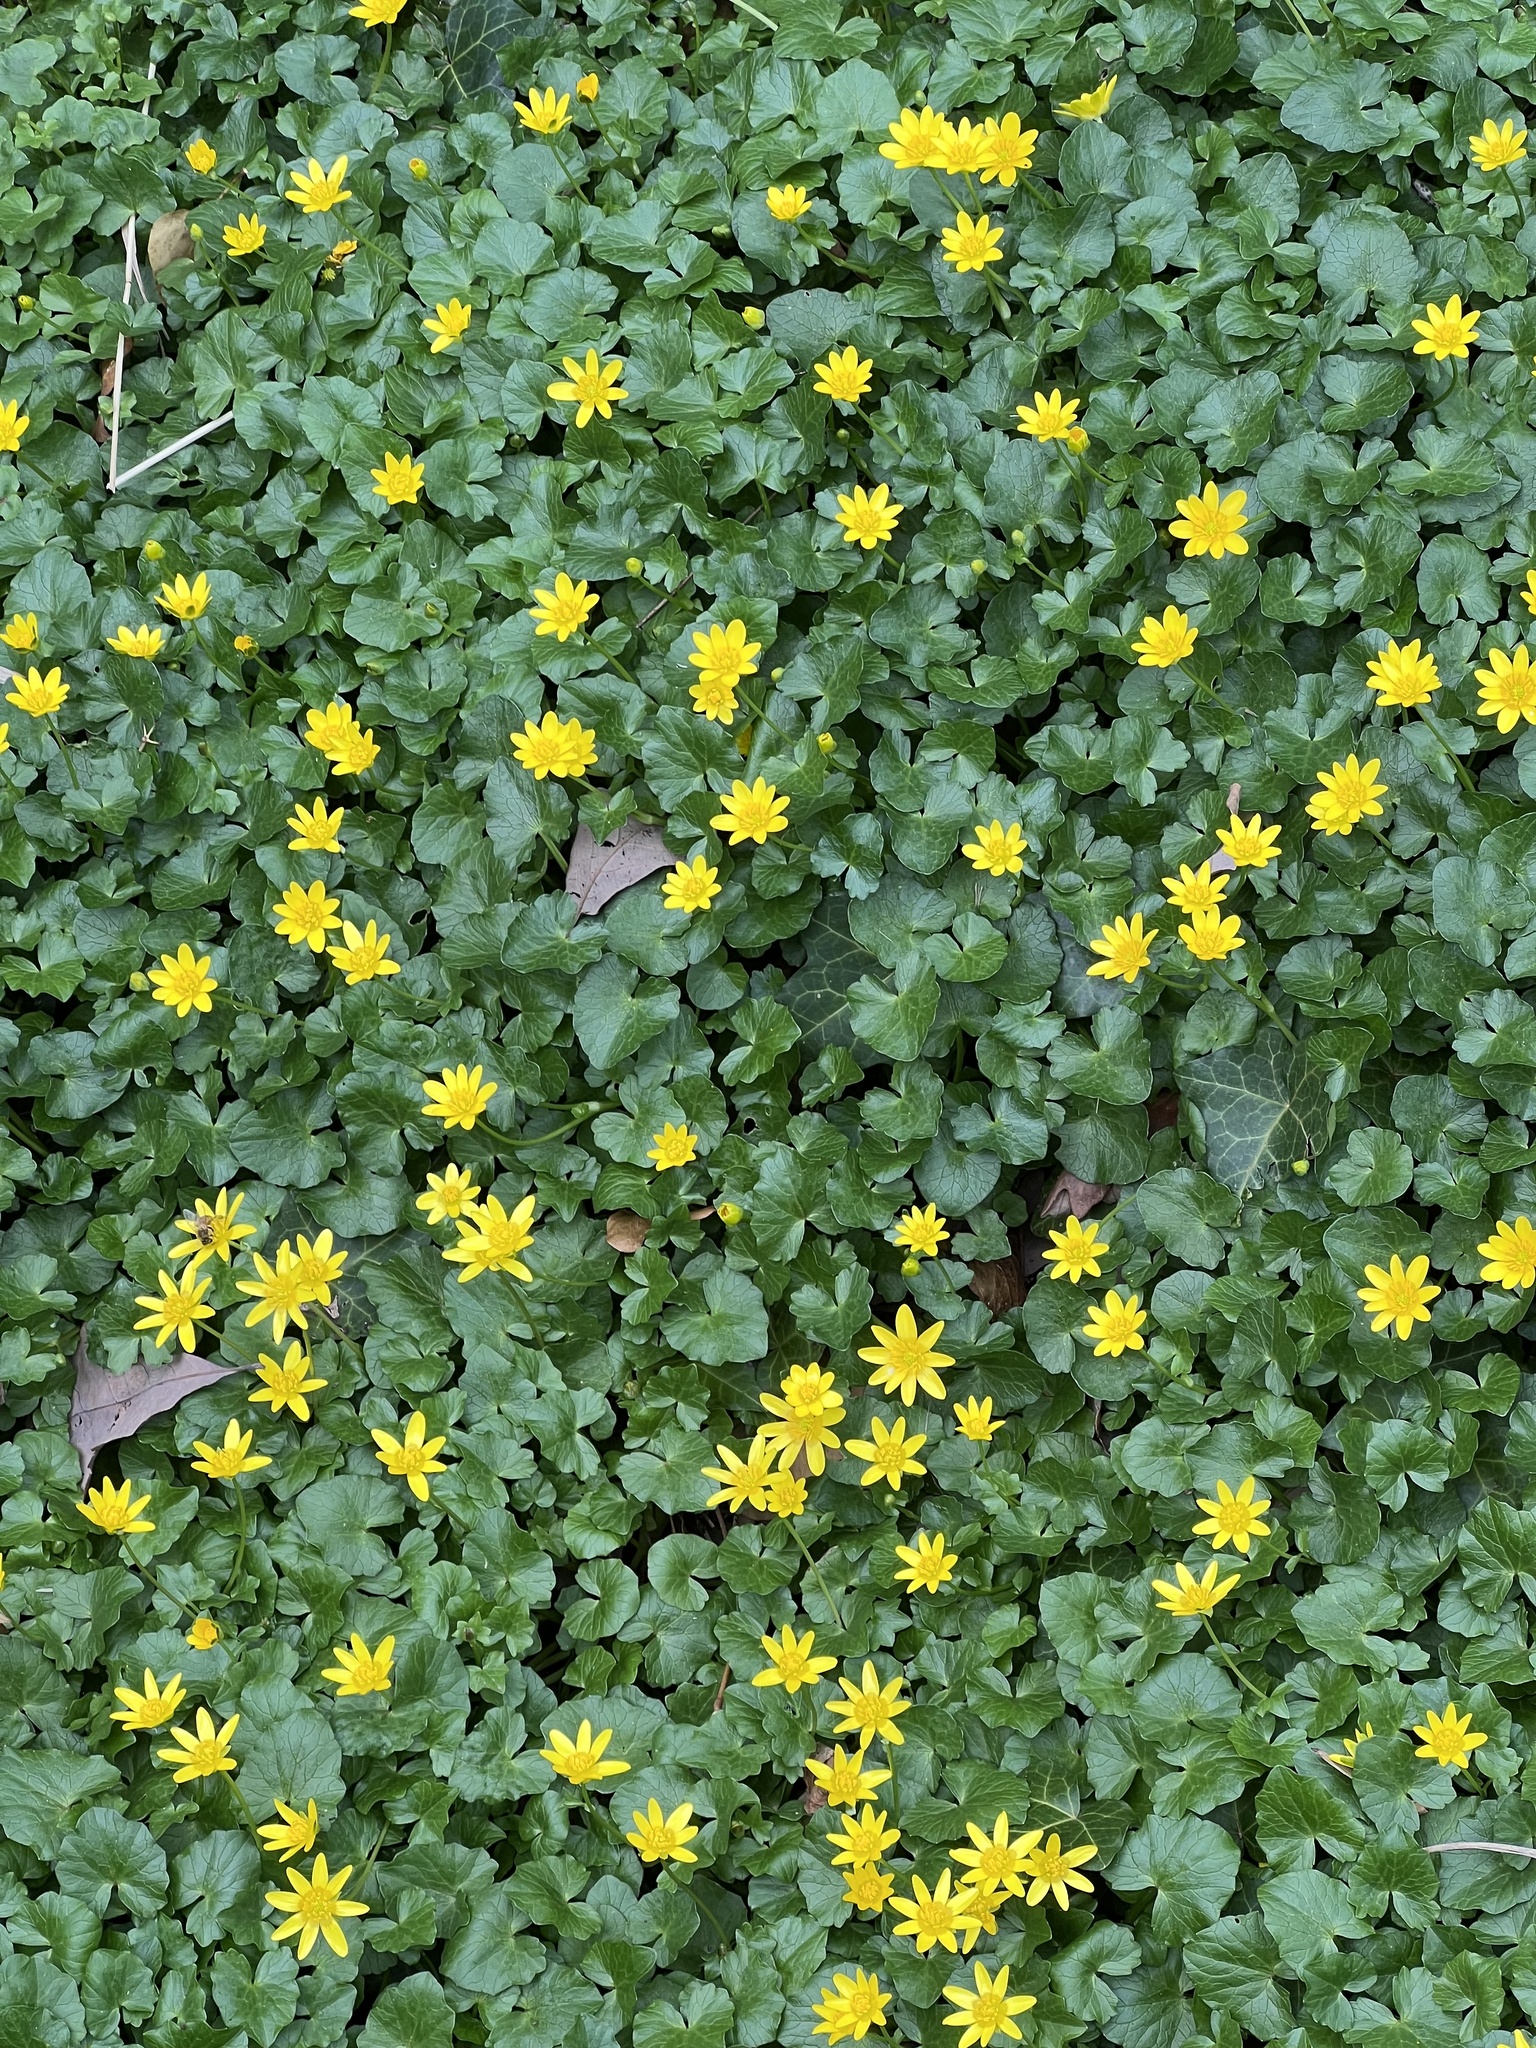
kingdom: Plantae
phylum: Tracheophyta
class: Magnoliopsida
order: Ranunculales
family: Ranunculaceae
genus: Ficaria
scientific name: Ficaria verna
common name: Lesser celandine
